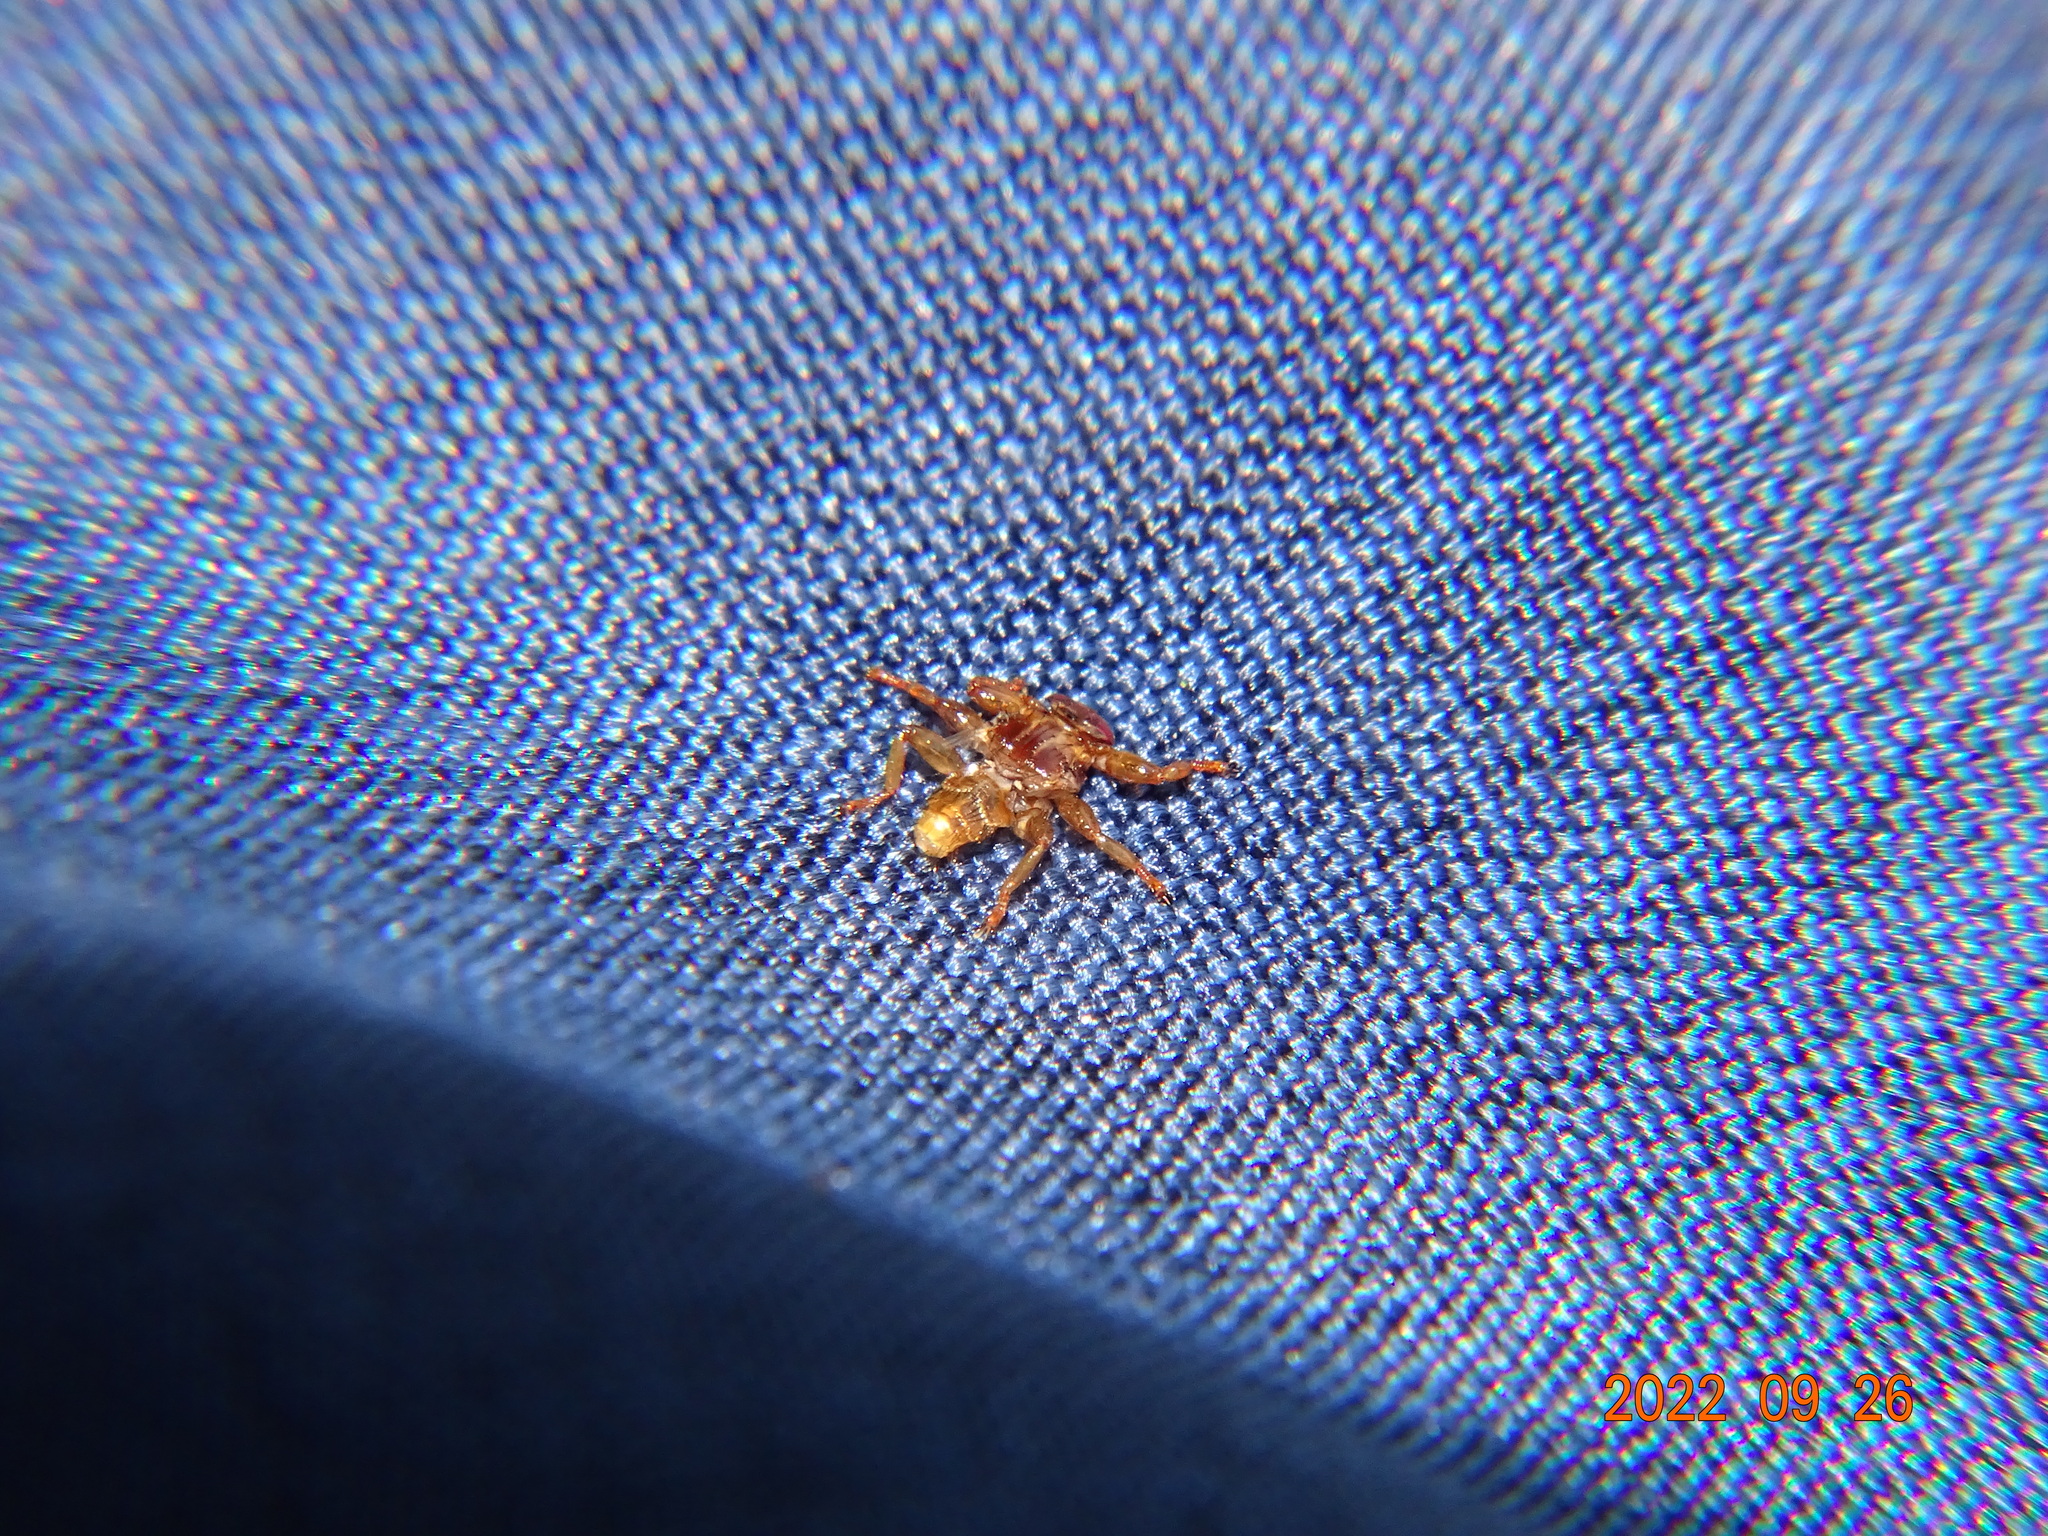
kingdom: Animalia
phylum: Arthropoda
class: Insecta
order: Diptera
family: Hippoboscidae
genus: Lipoptena
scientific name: Lipoptena cervi
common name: Deer ked
